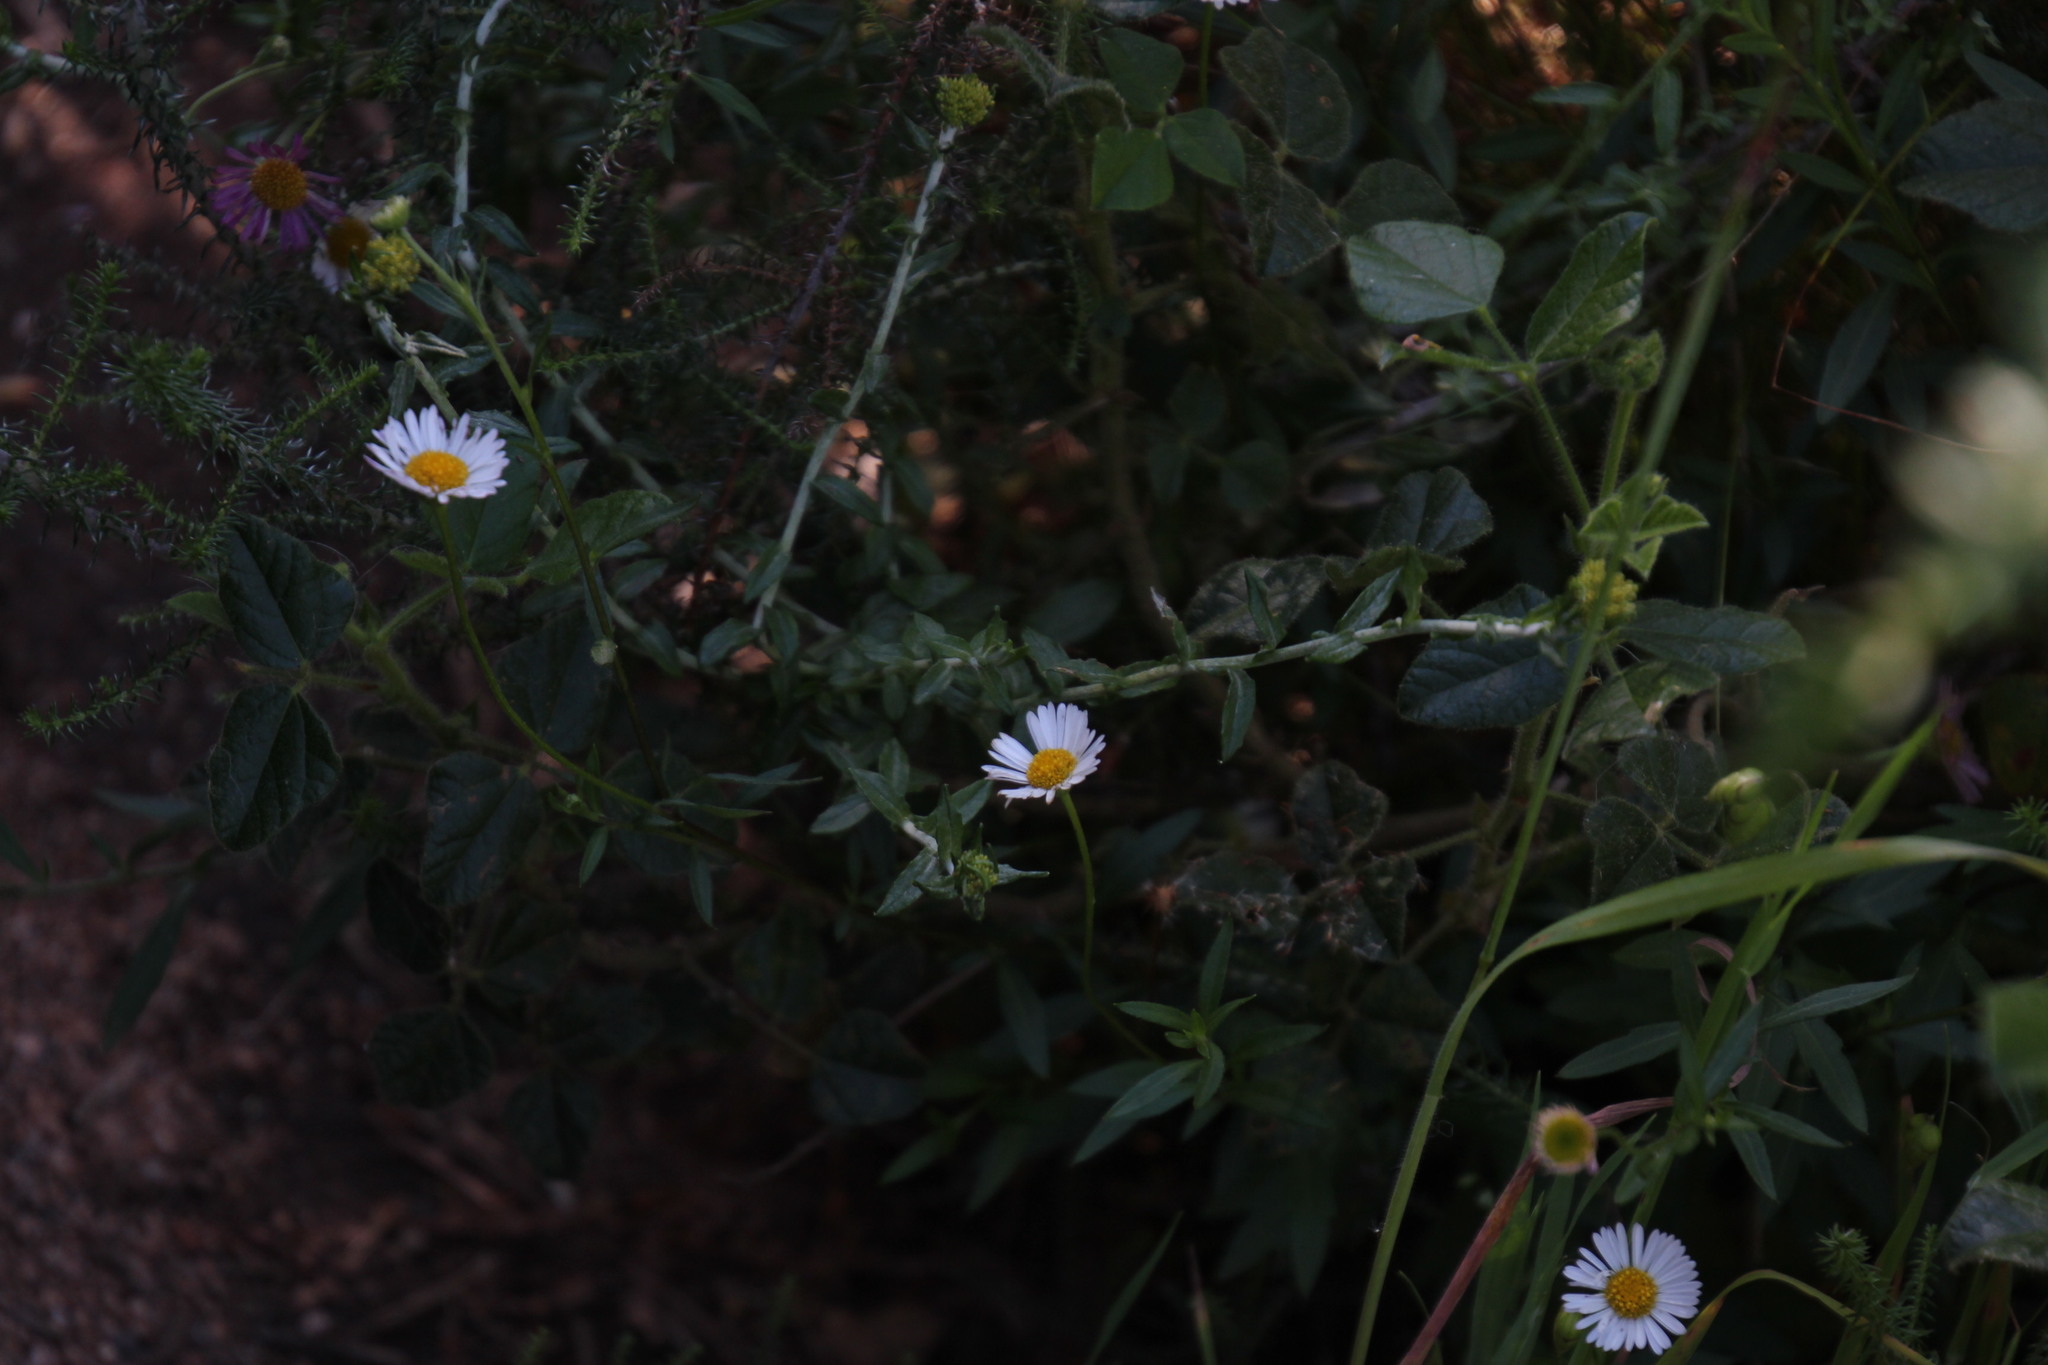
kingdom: Plantae
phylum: Tracheophyta
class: Magnoliopsida
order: Asterales
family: Asteraceae
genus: Erigeron
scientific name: Erigeron karvinskianus
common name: Mexican fleabane
